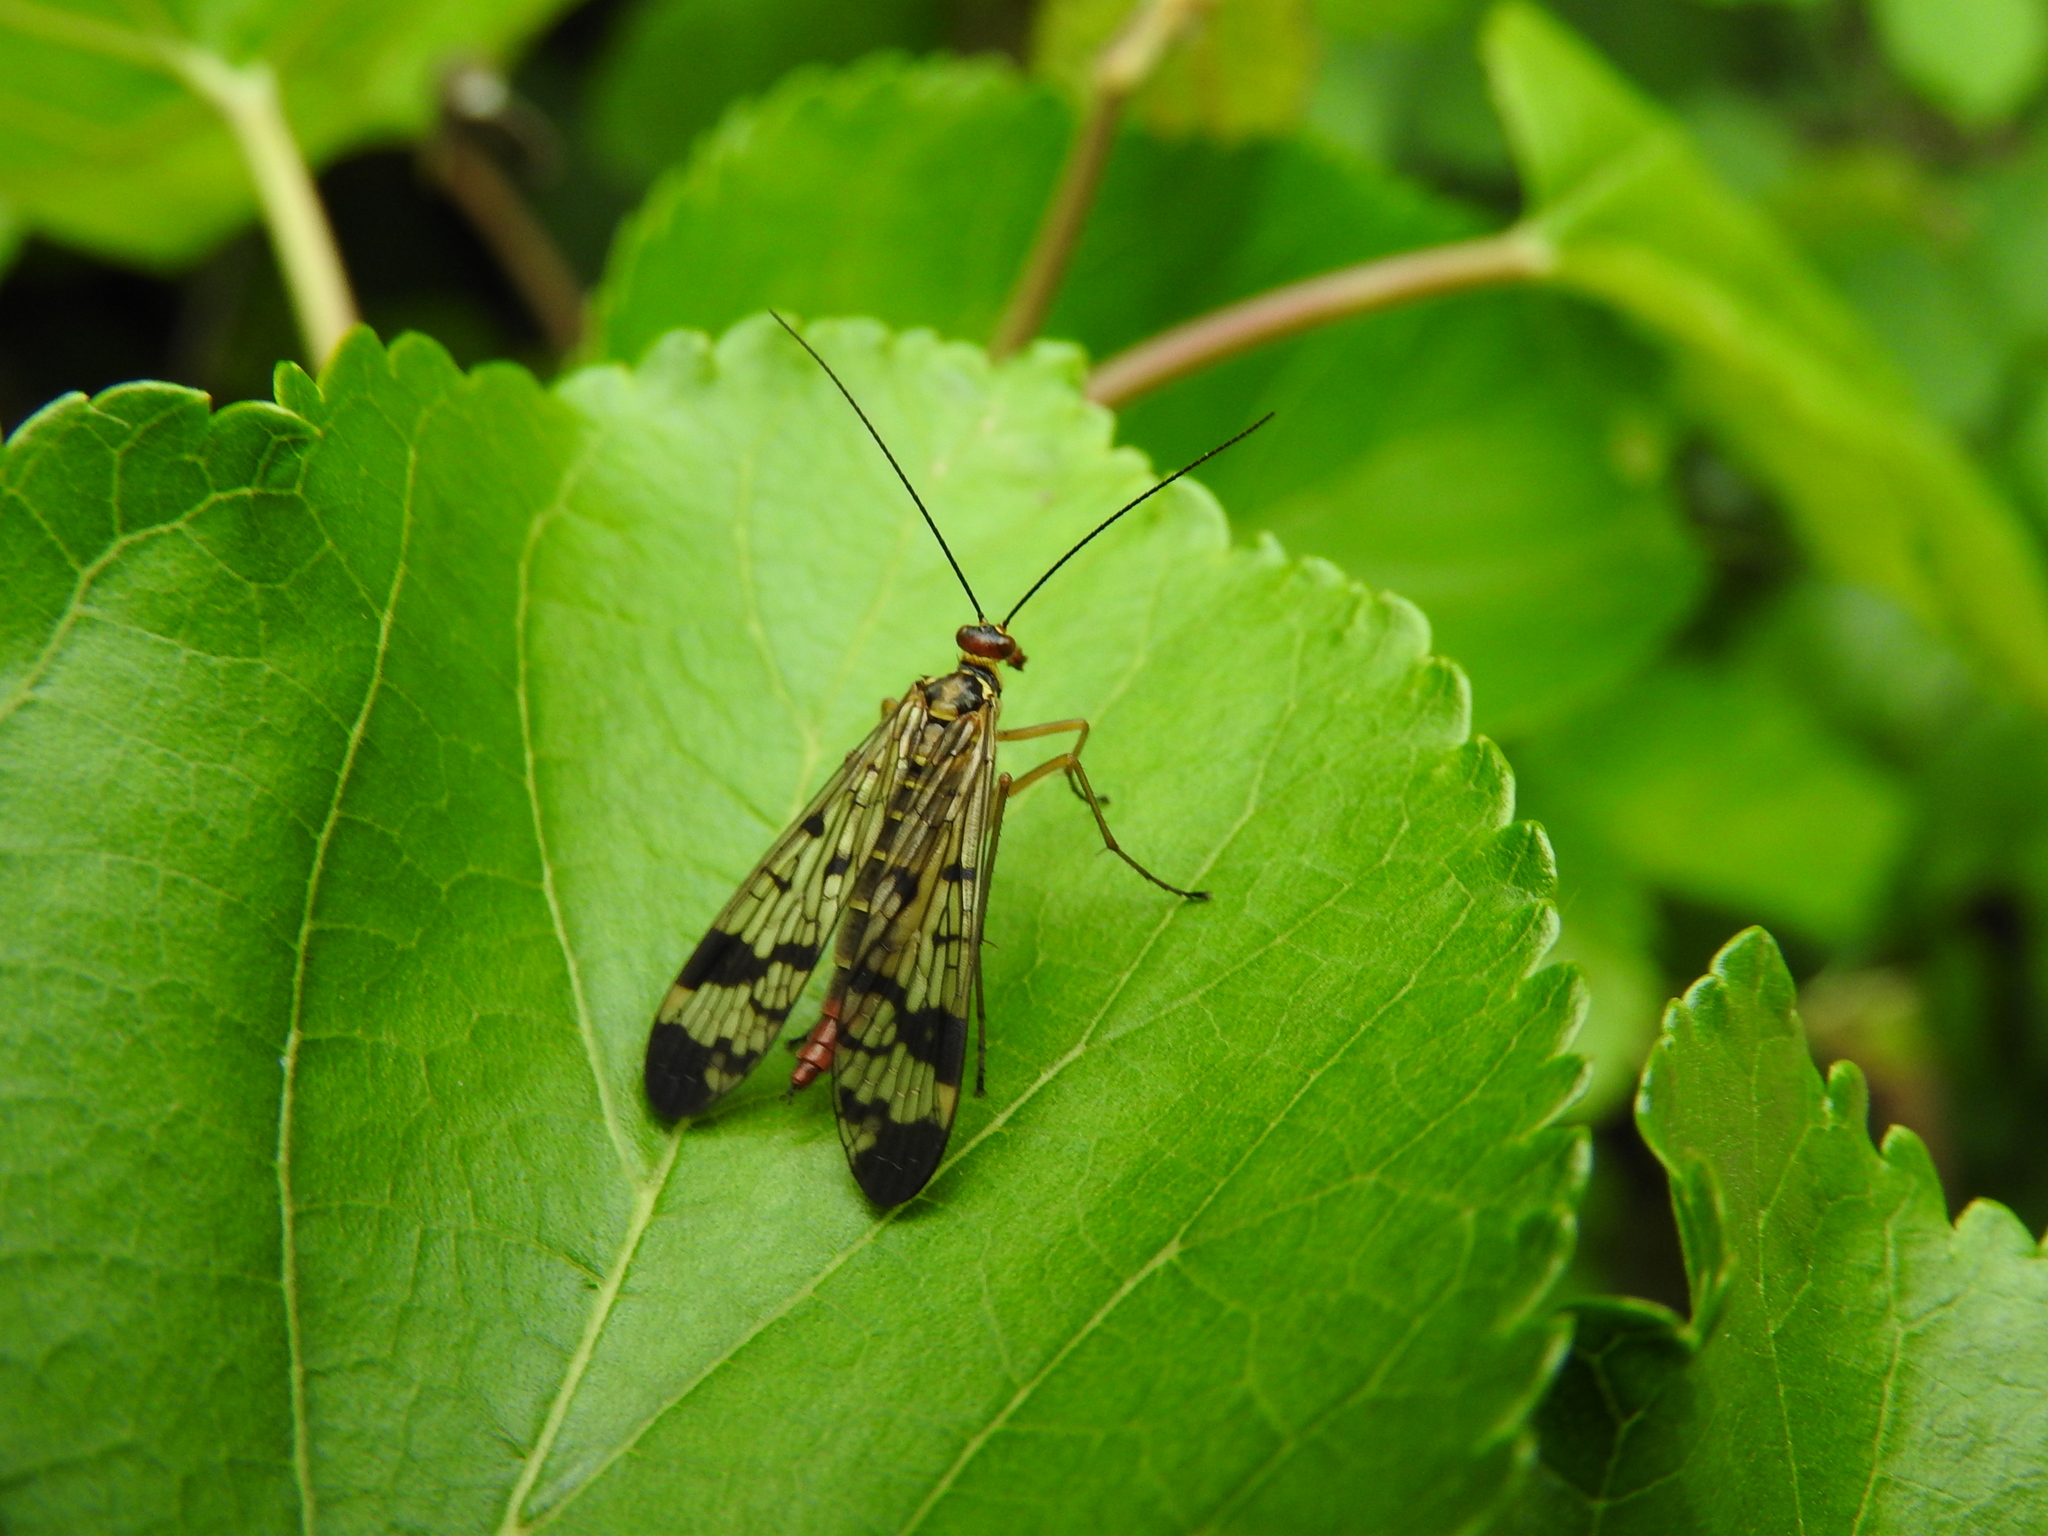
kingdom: Animalia
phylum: Arthropoda
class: Insecta
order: Mecoptera
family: Panorpidae
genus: Panorpa
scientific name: Panorpa communis
